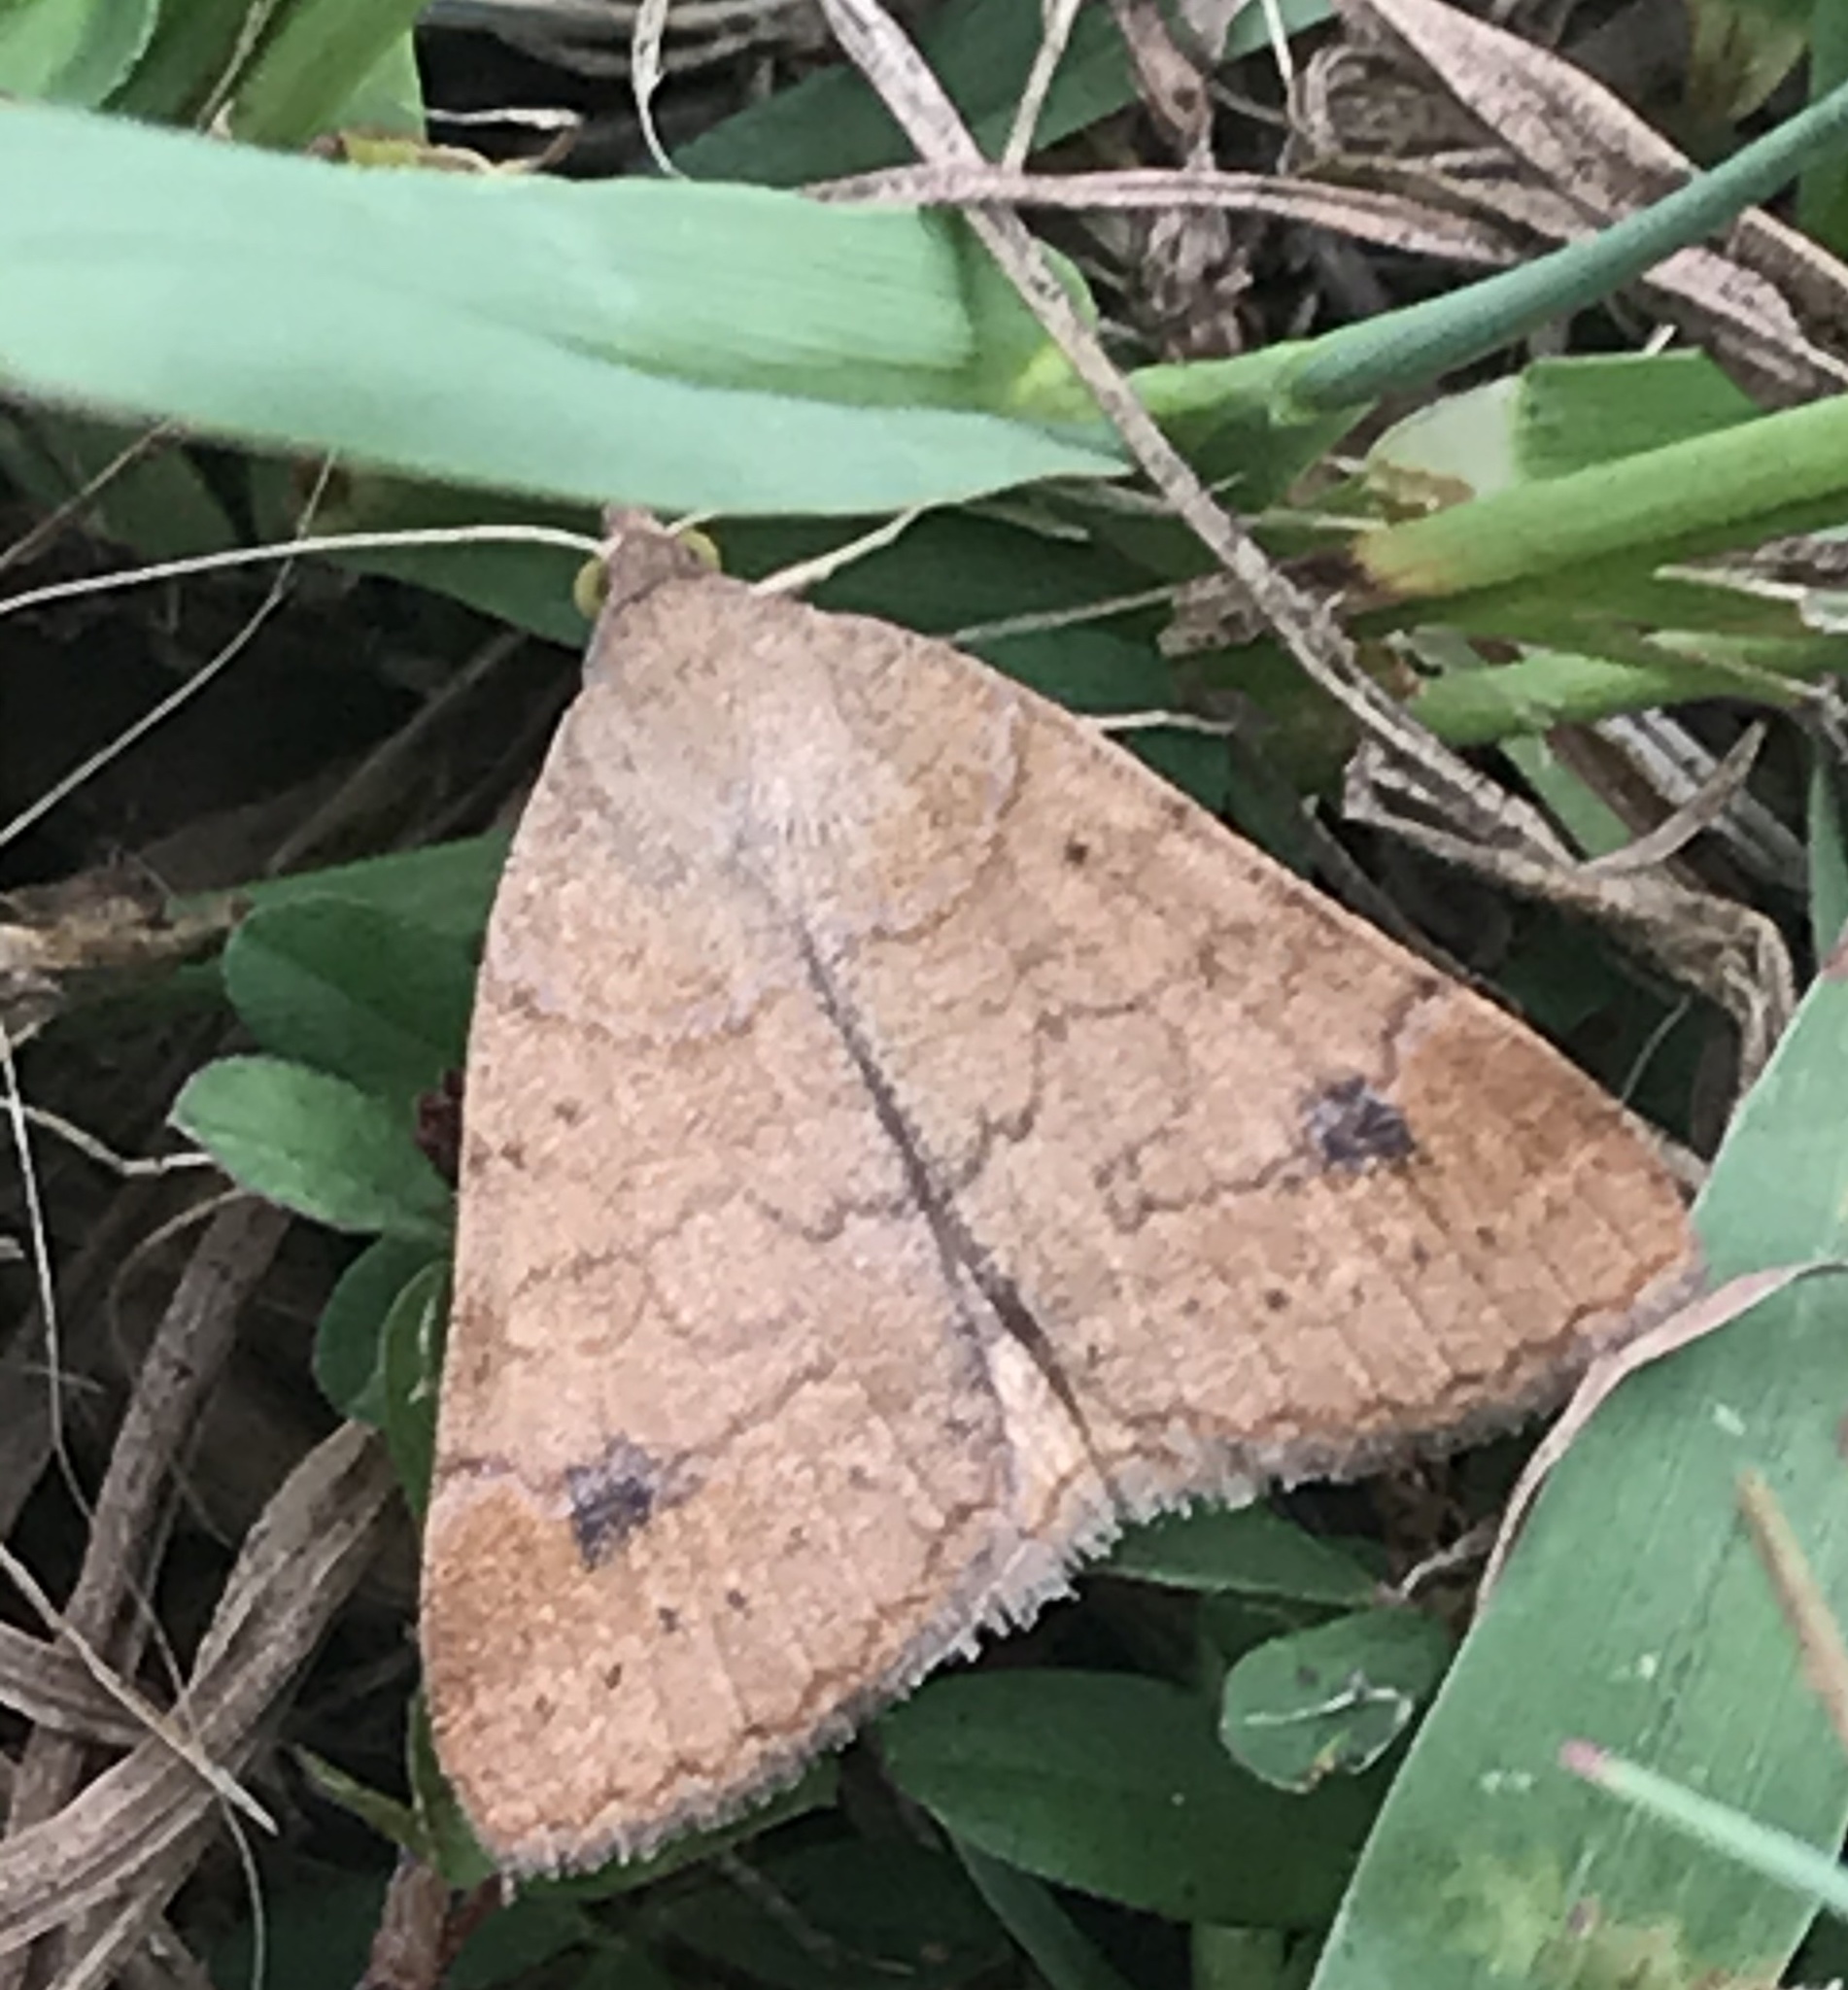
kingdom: Animalia
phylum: Arthropoda
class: Insecta
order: Lepidoptera
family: Erebidae
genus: Caenurgia
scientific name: Caenurgia chloropha
